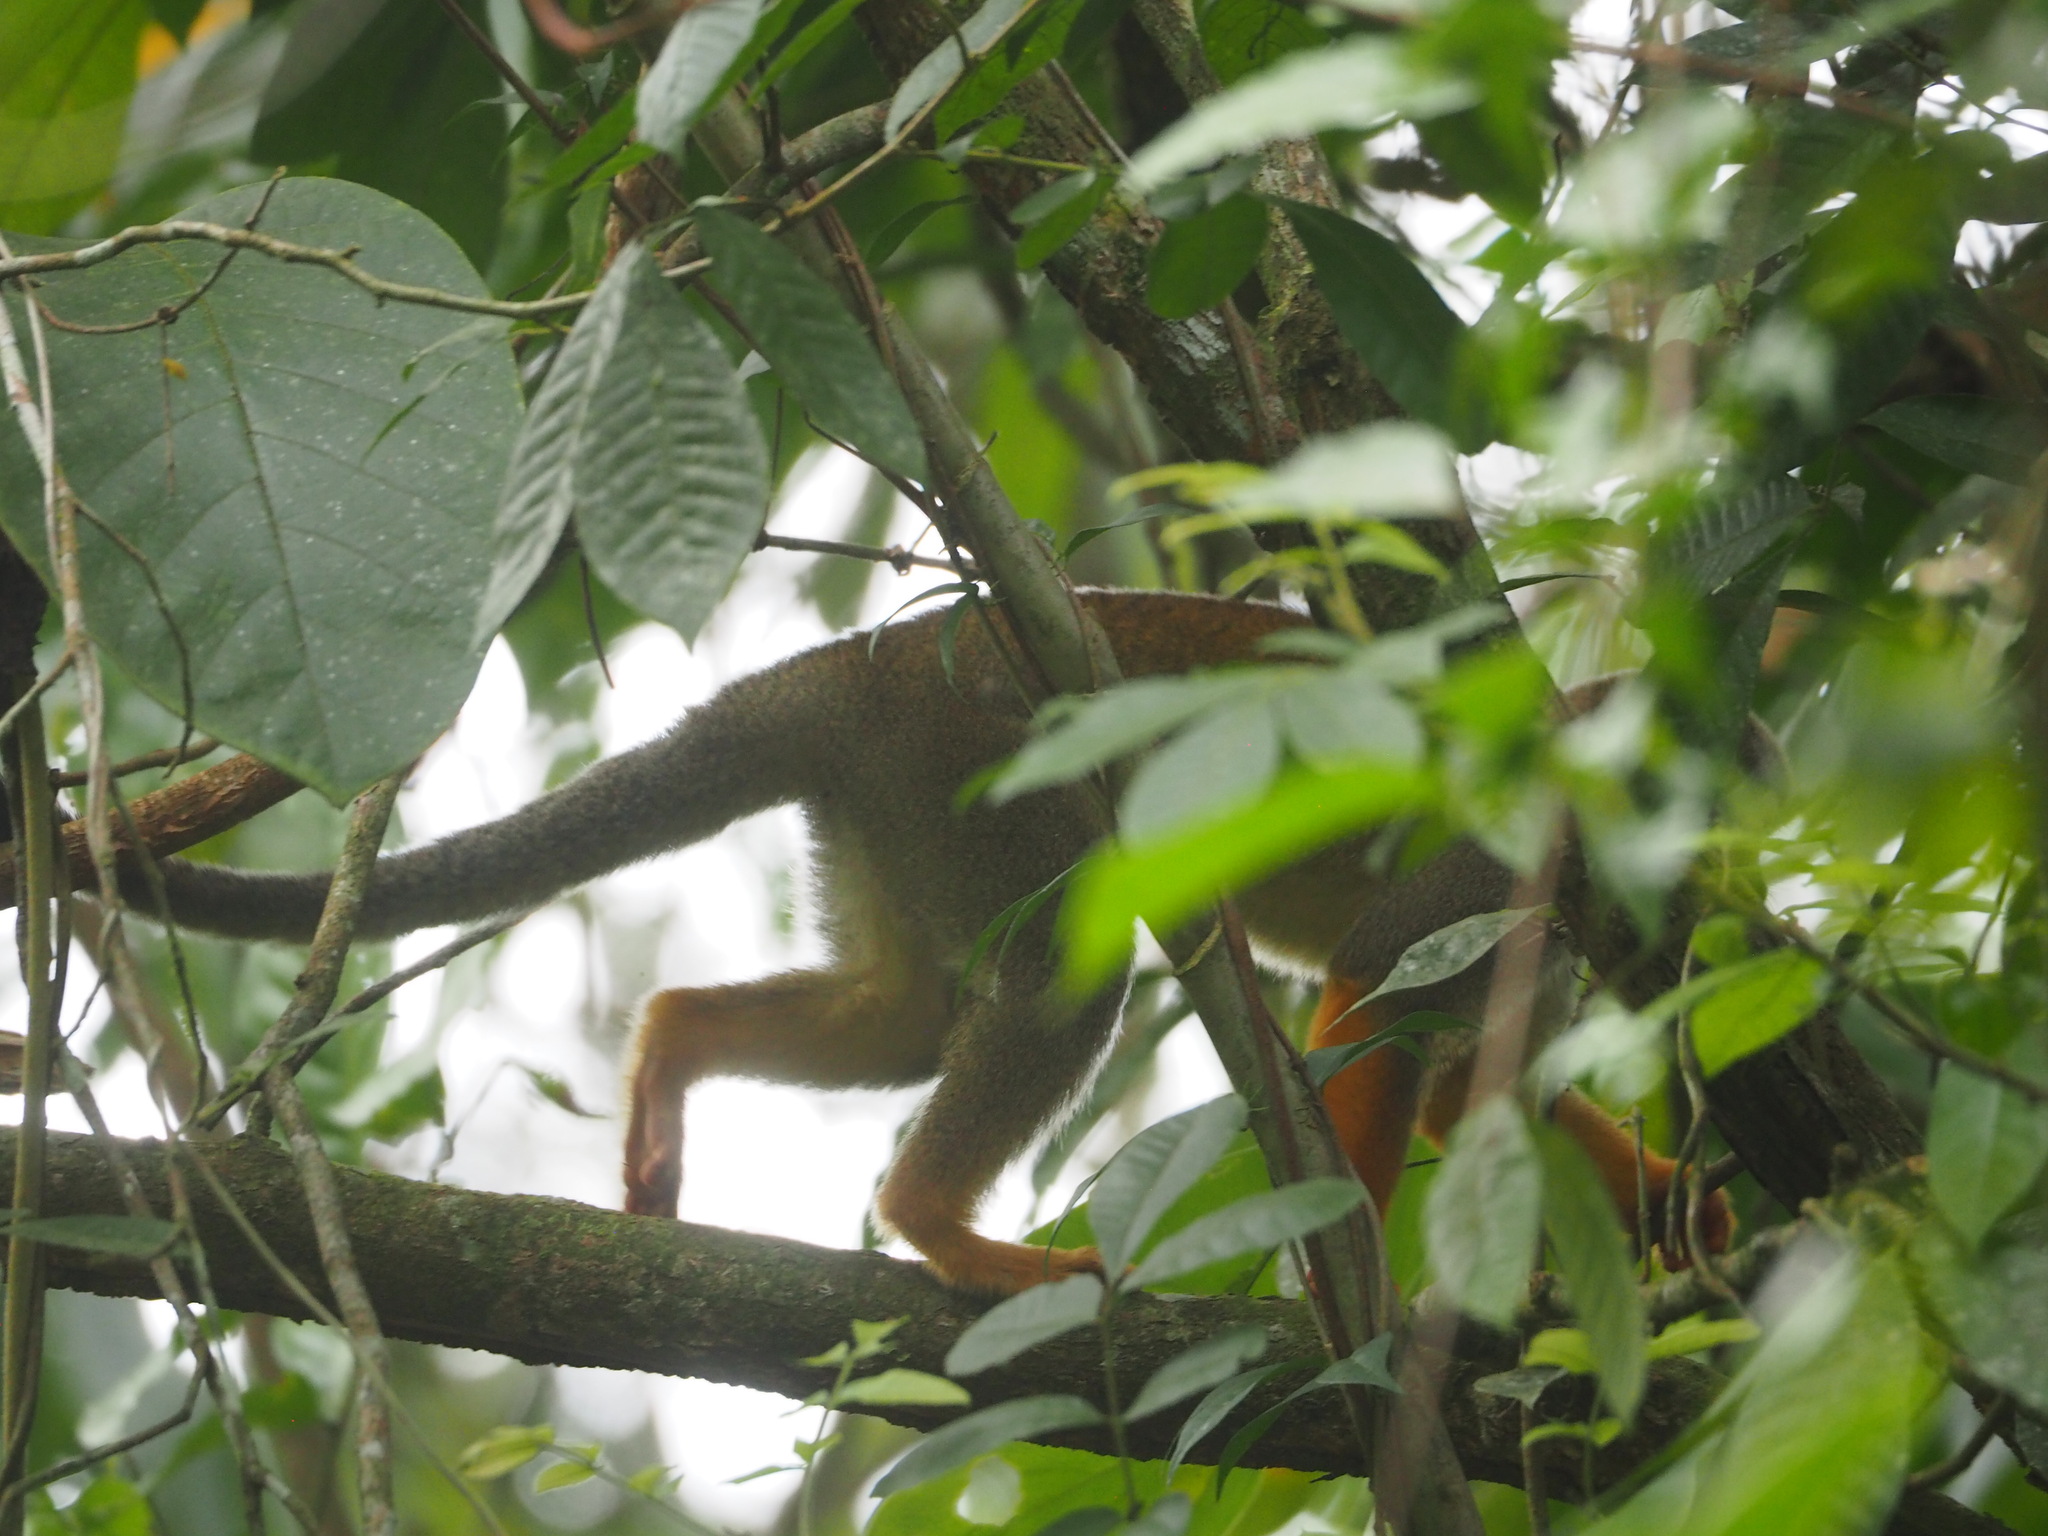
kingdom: Animalia
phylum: Chordata
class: Mammalia
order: Primates
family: Cebidae
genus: Saimiri
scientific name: Saimiri sciureus
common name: Common squirrel monkey
